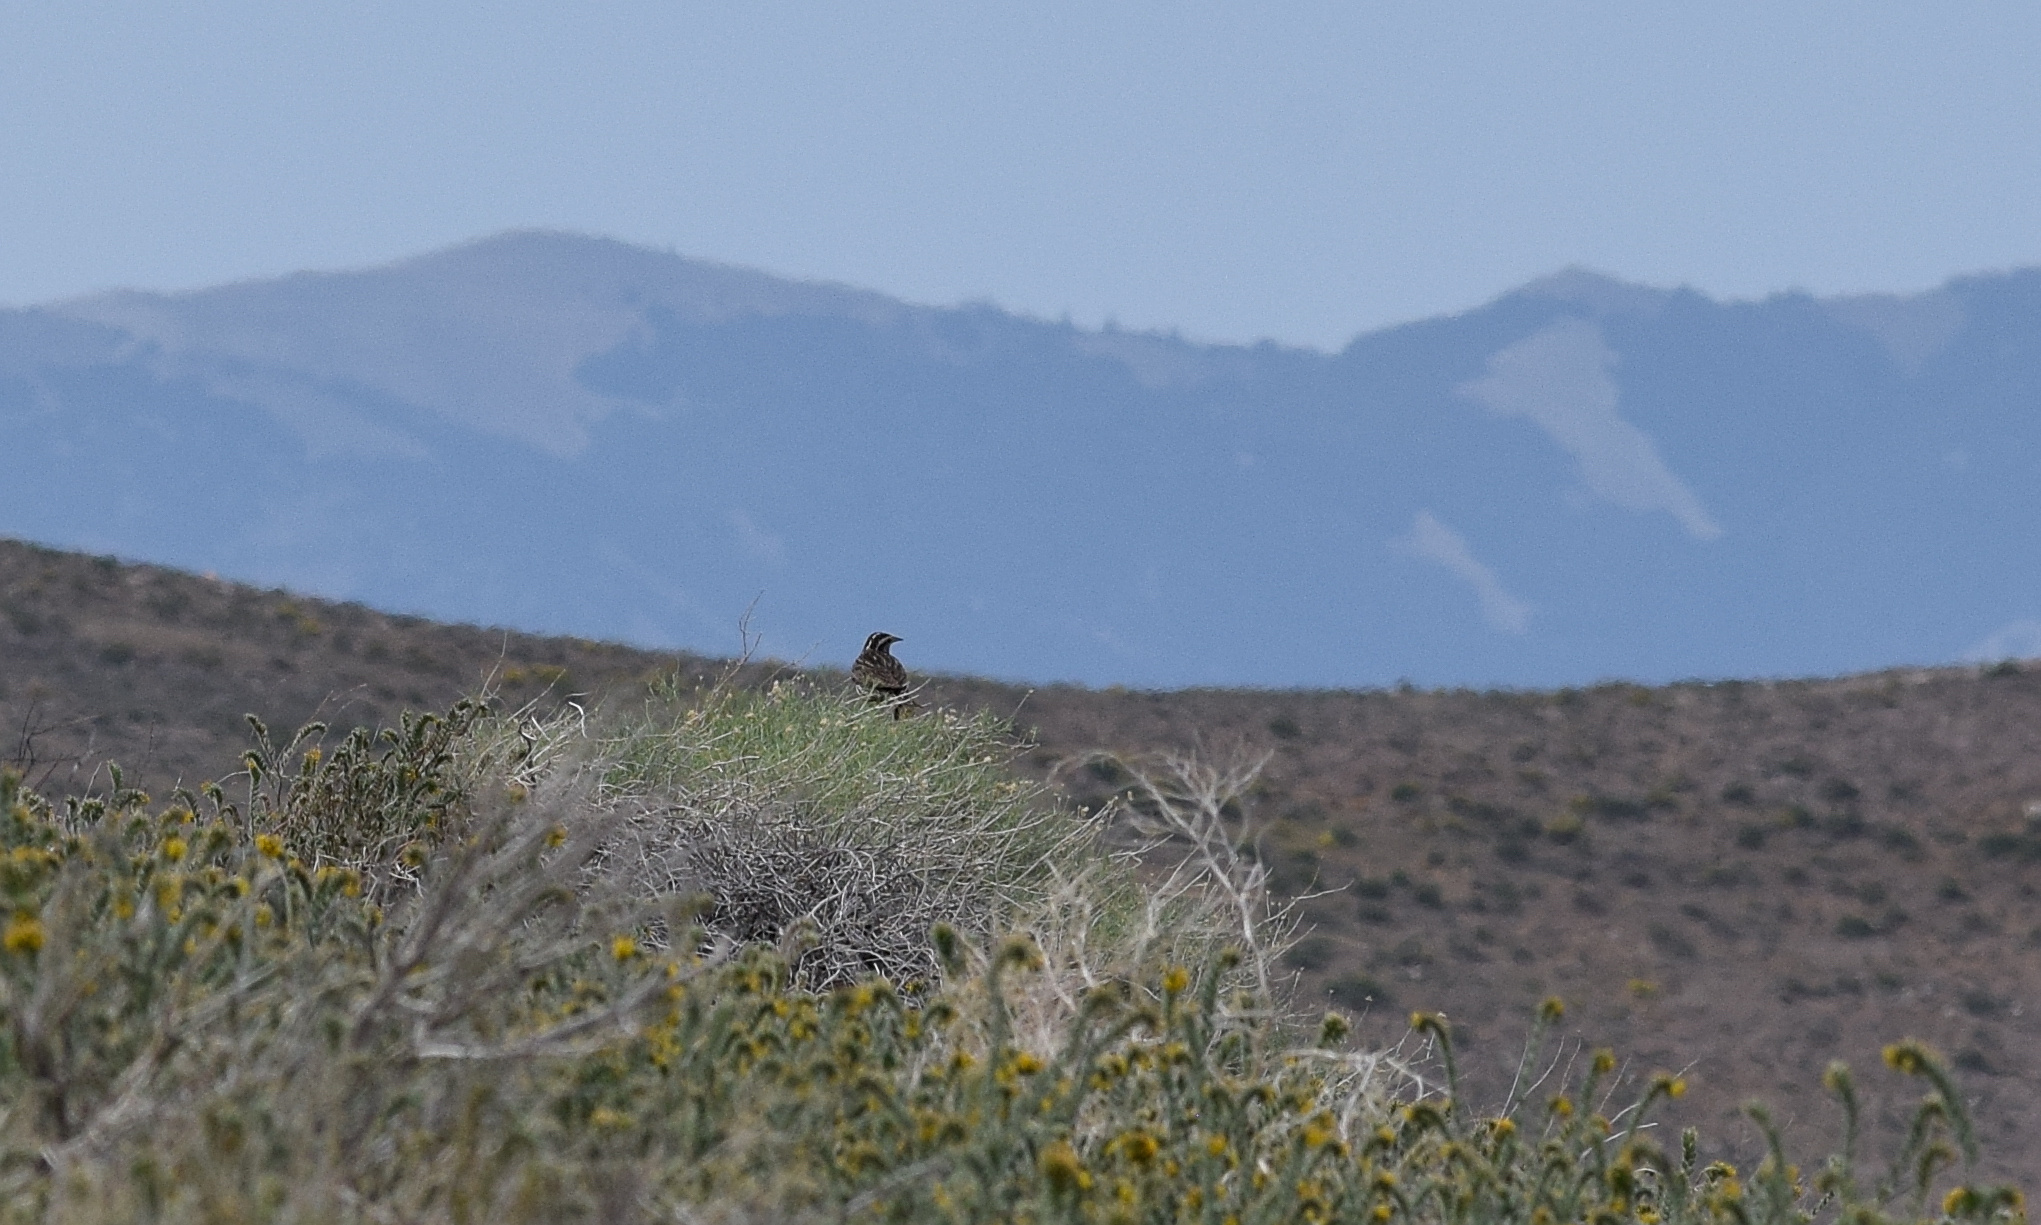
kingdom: Animalia
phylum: Chordata
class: Aves
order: Passeriformes
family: Icteridae
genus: Sturnella
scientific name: Sturnella neglecta
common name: Western meadowlark
